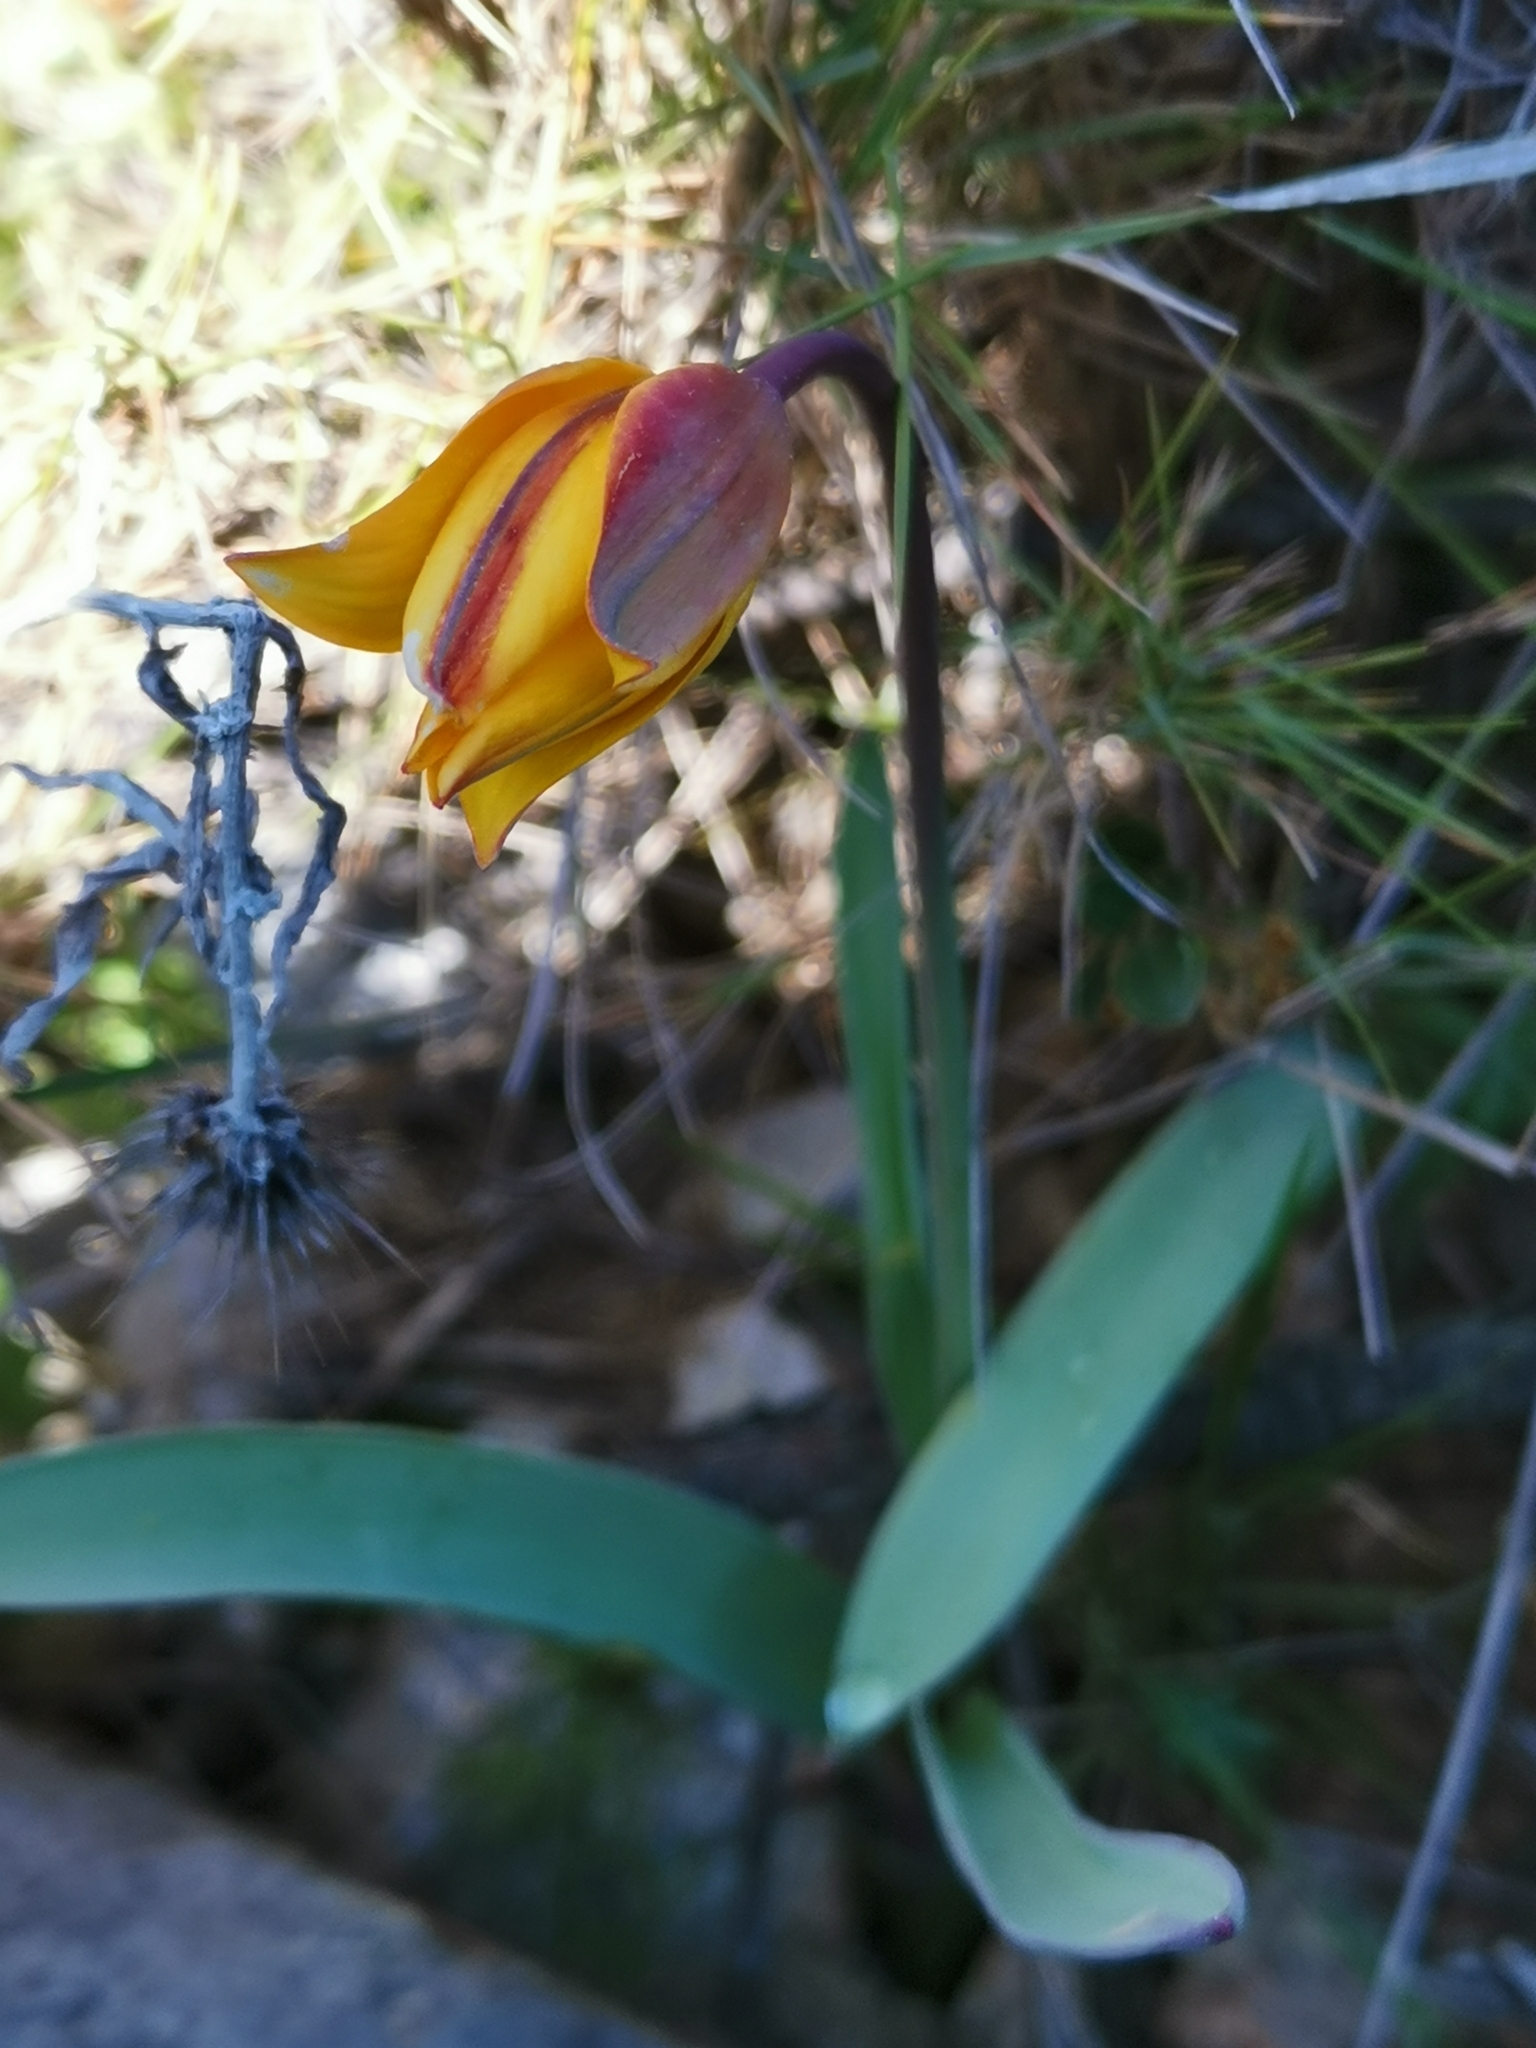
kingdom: Plantae
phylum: Tracheophyta
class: Liliopsida
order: Liliales
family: Liliaceae
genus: Tulipa
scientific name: Tulipa sylvestris
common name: Wild tulip
